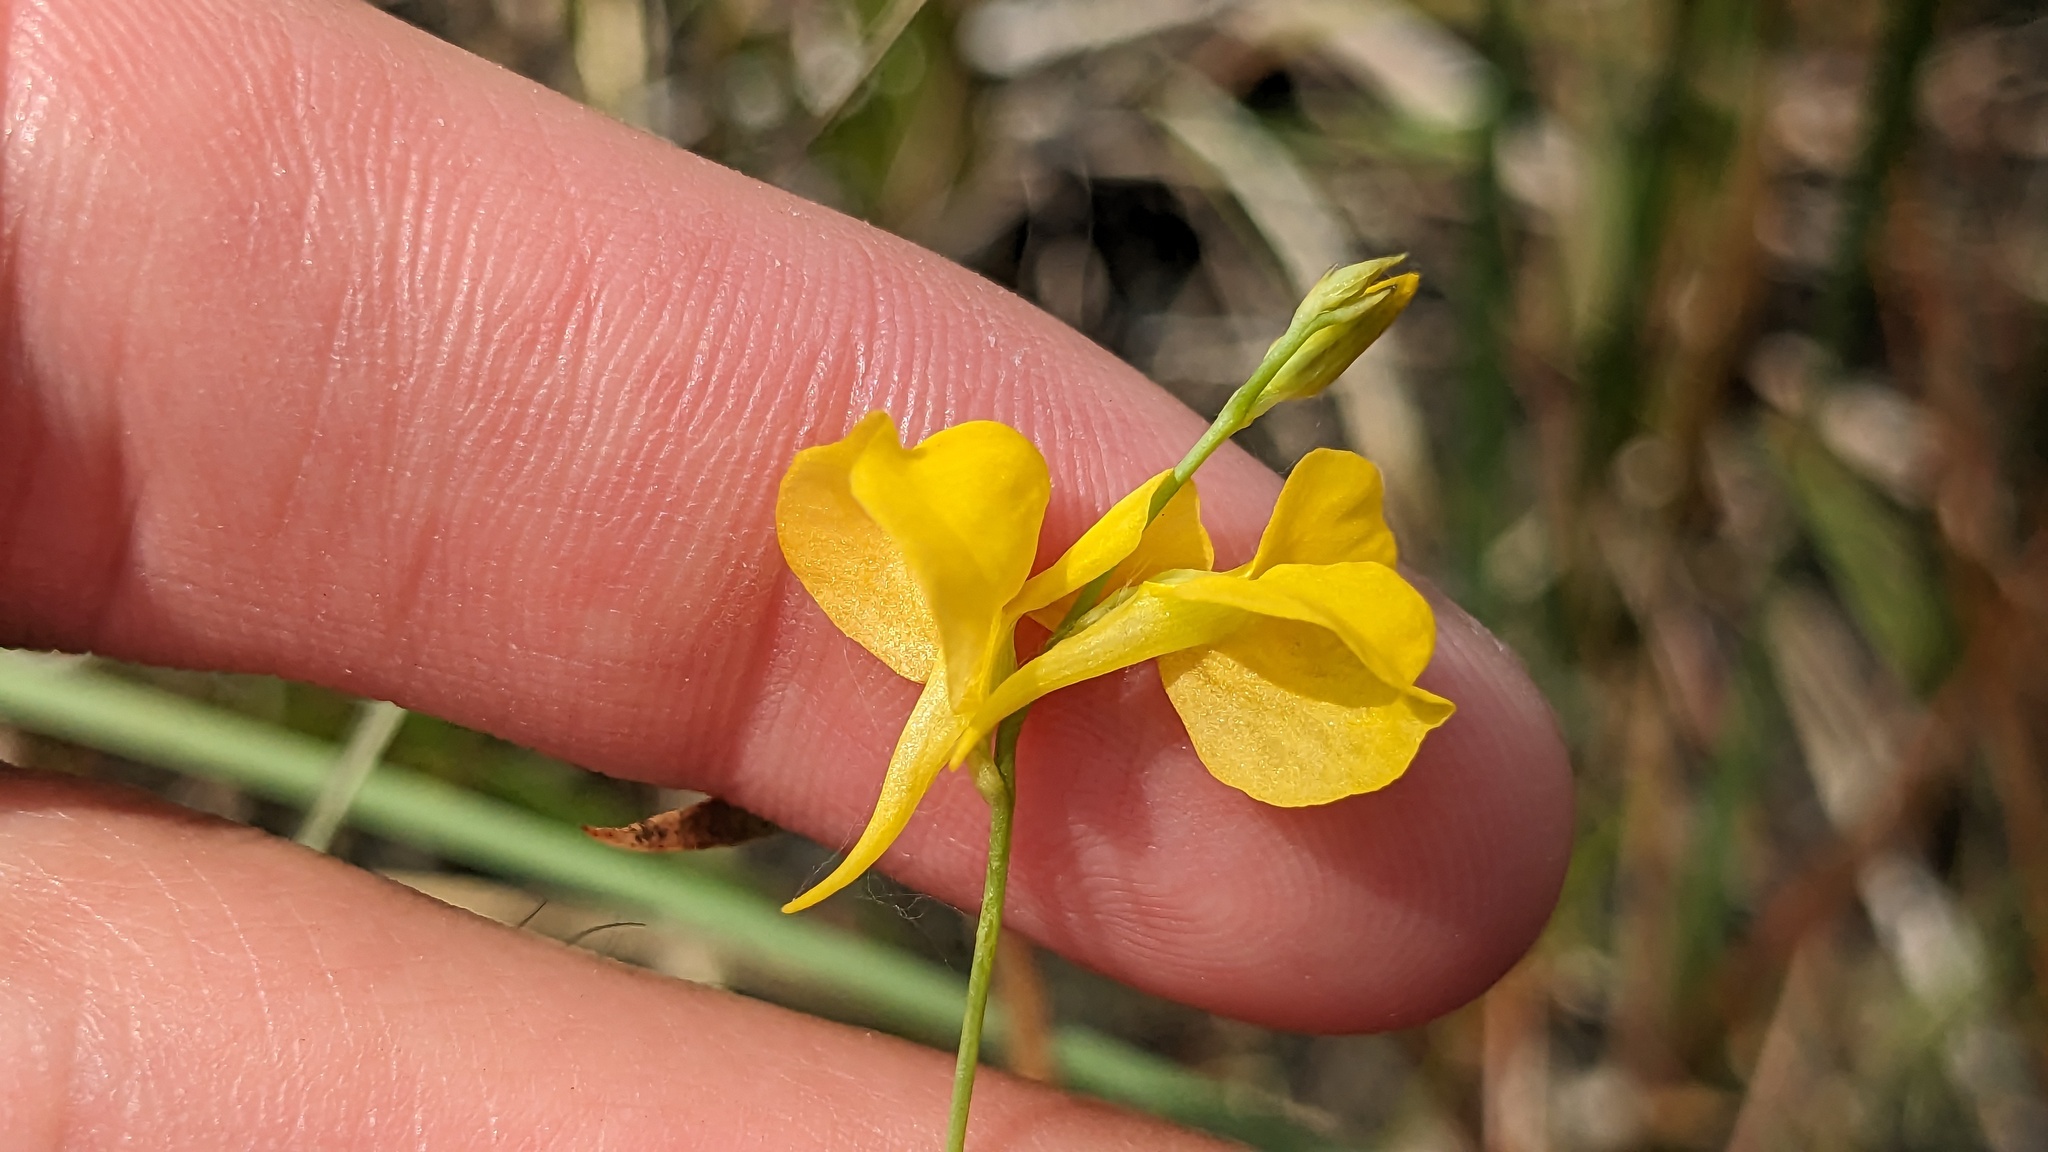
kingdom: Plantae
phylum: Tracheophyta
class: Magnoliopsida
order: Lamiales
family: Lentibulariaceae
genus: Utricularia
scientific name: Utricularia juncea
